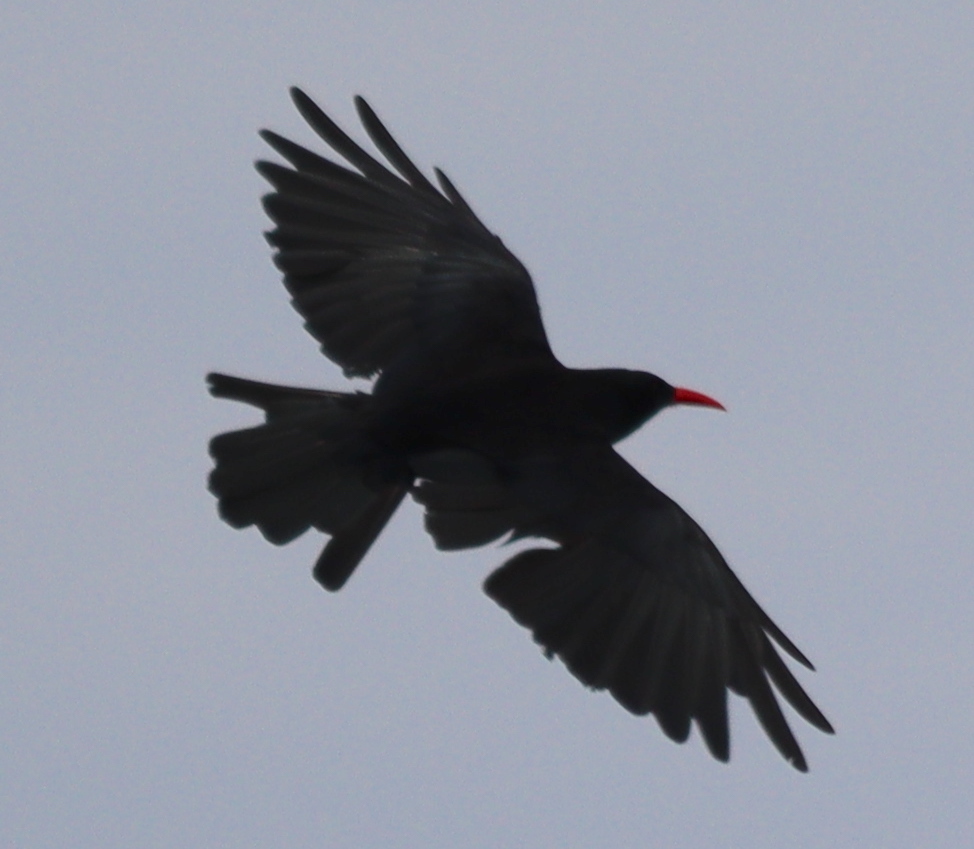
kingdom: Animalia
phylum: Chordata
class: Aves
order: Passeriformes
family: Corvidae
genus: Pyrrhocorax
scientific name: Pyrrhocorax pyrrhocorax
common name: Red-billed chough
